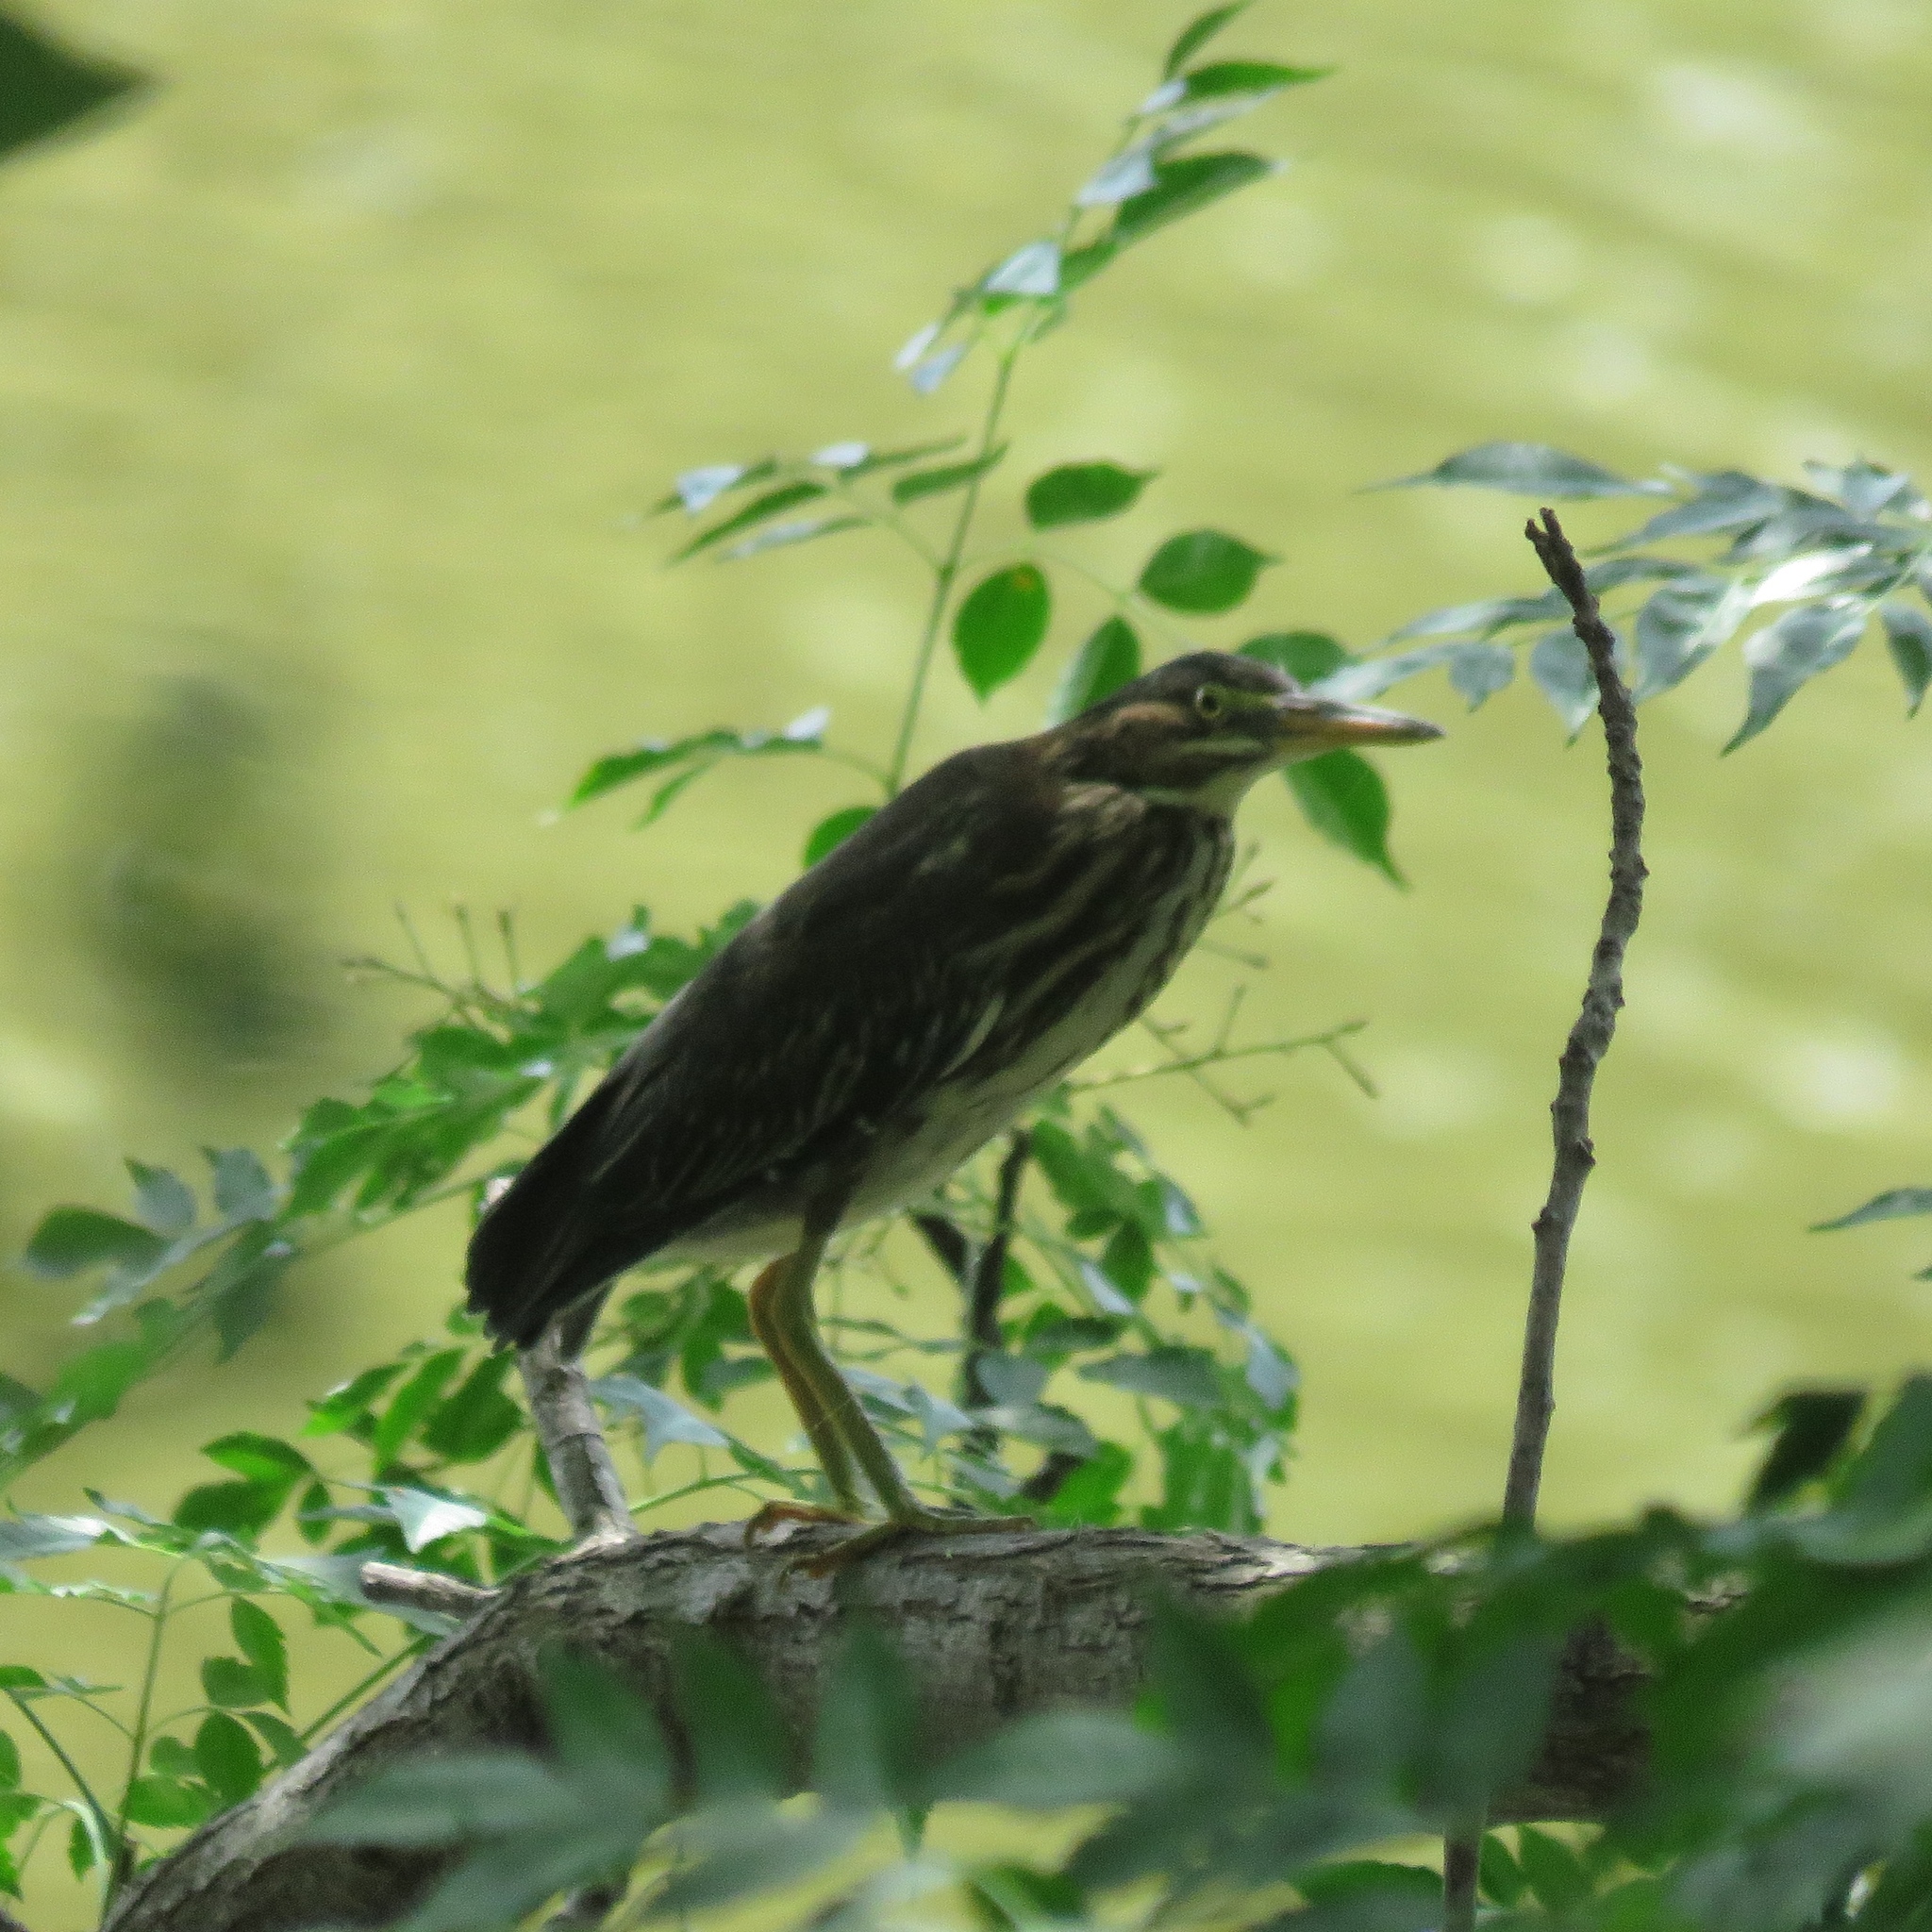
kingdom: Animalia
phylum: Chordata
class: Aves
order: Pelecaniformes
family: Ardeidae
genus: Butorides
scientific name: Butorides virescens
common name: Green heron
